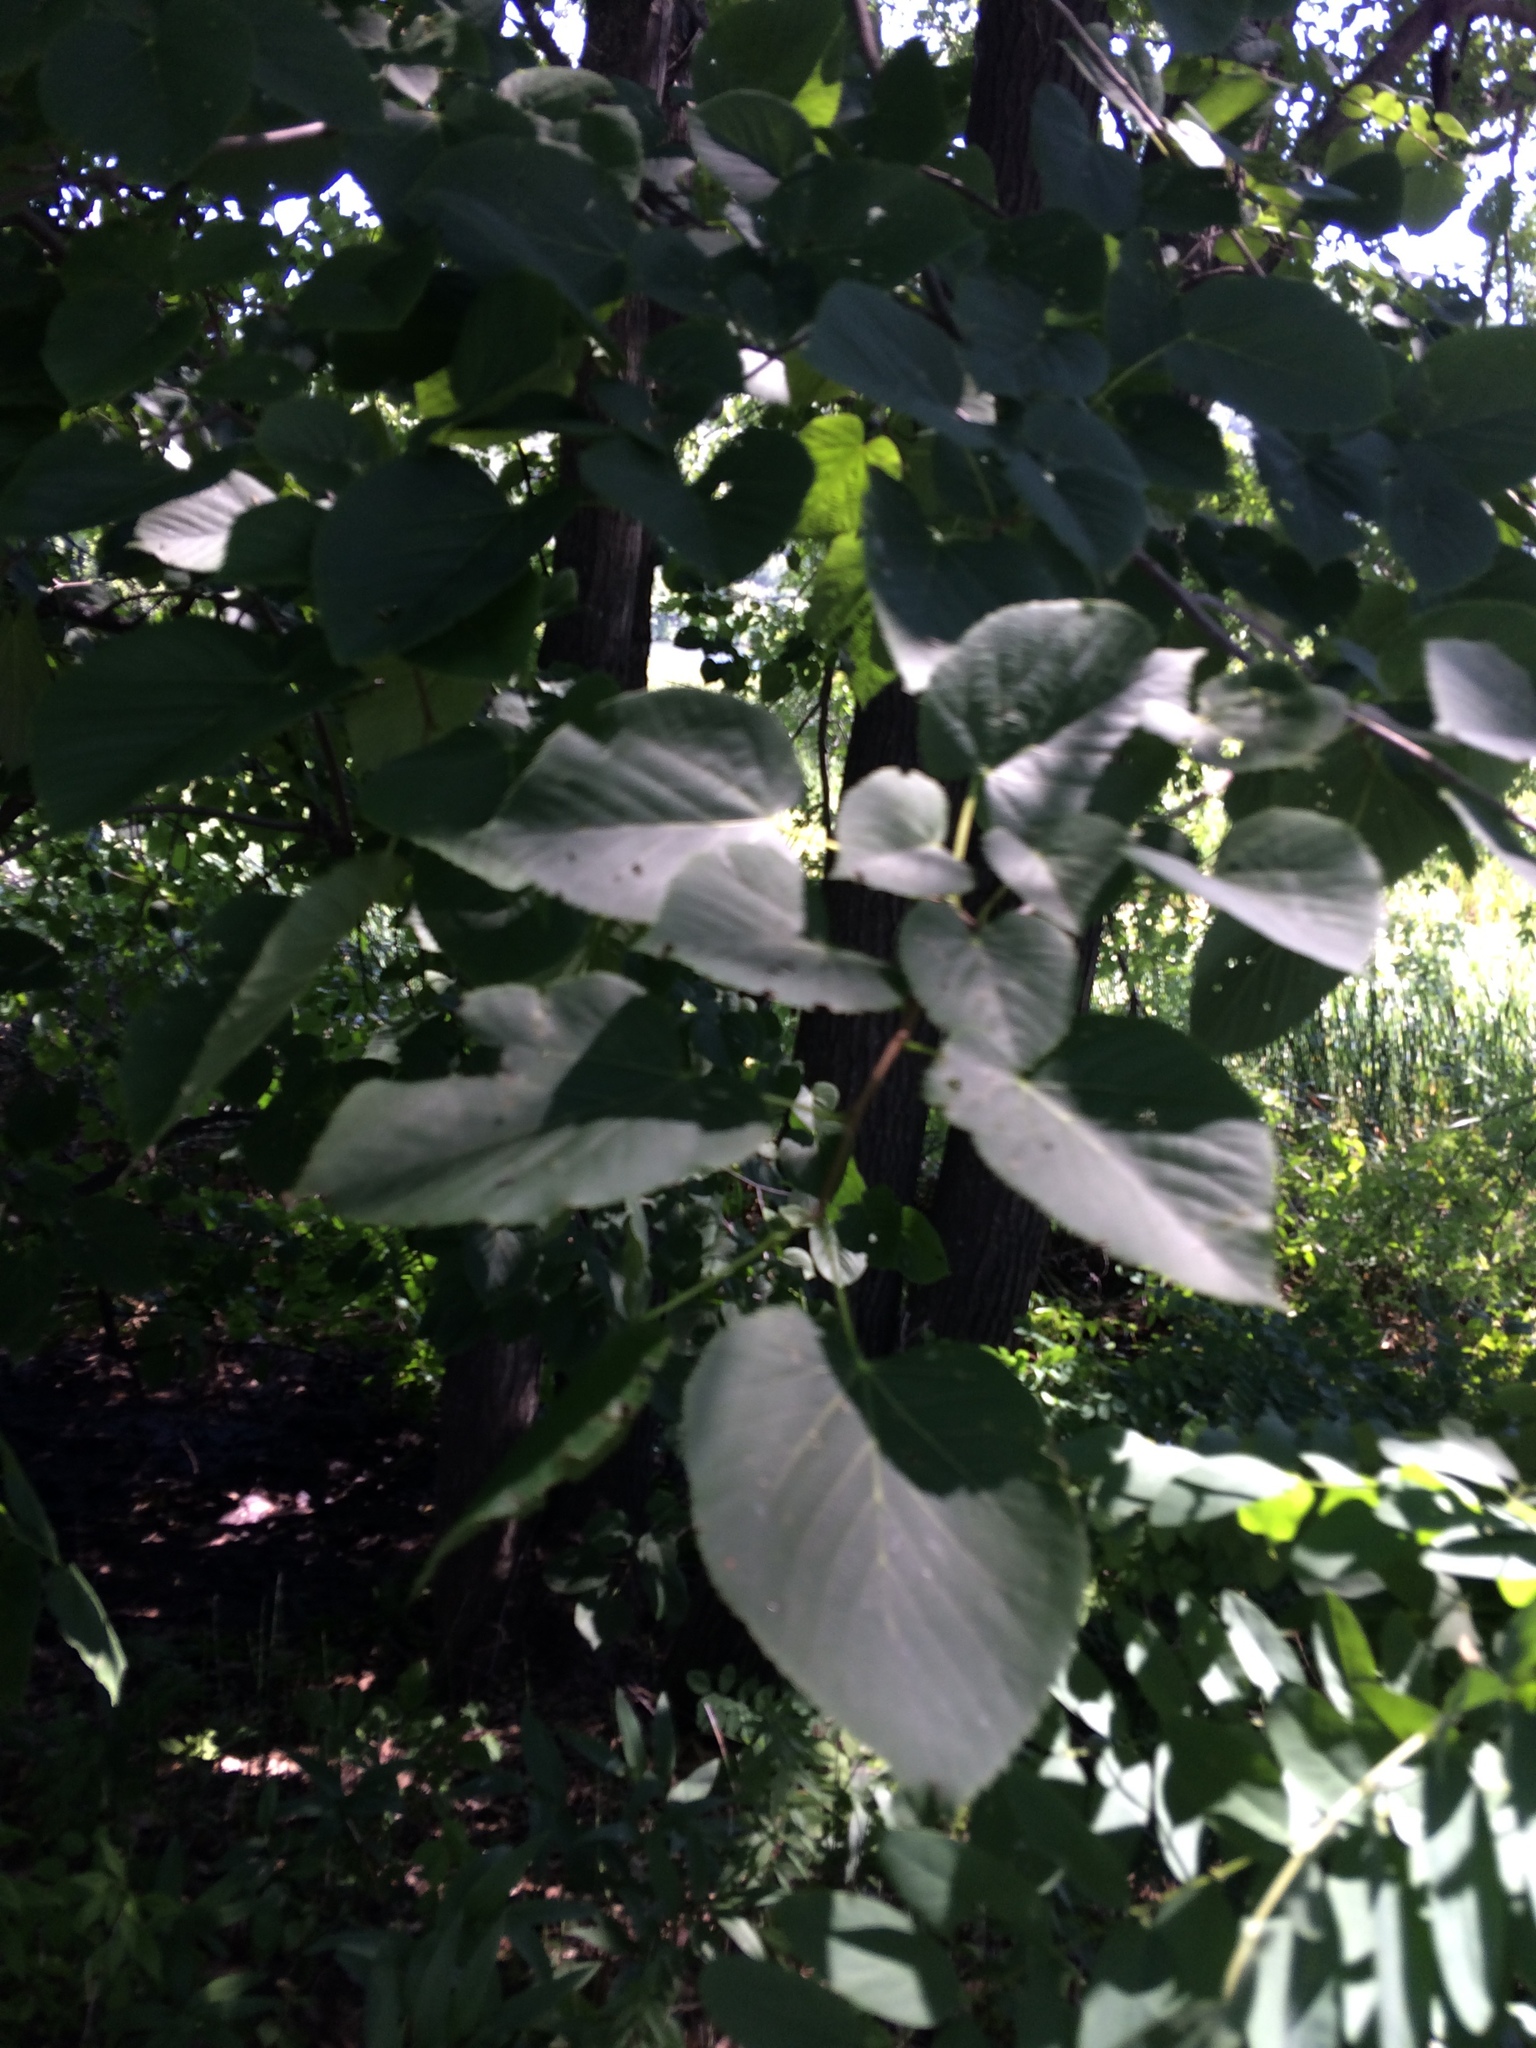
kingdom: Plantae
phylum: Tracheophyta
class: Magnoliopsida
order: Malvales
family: Malvaceae
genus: Tilia
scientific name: Tilia americana
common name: Basswood
